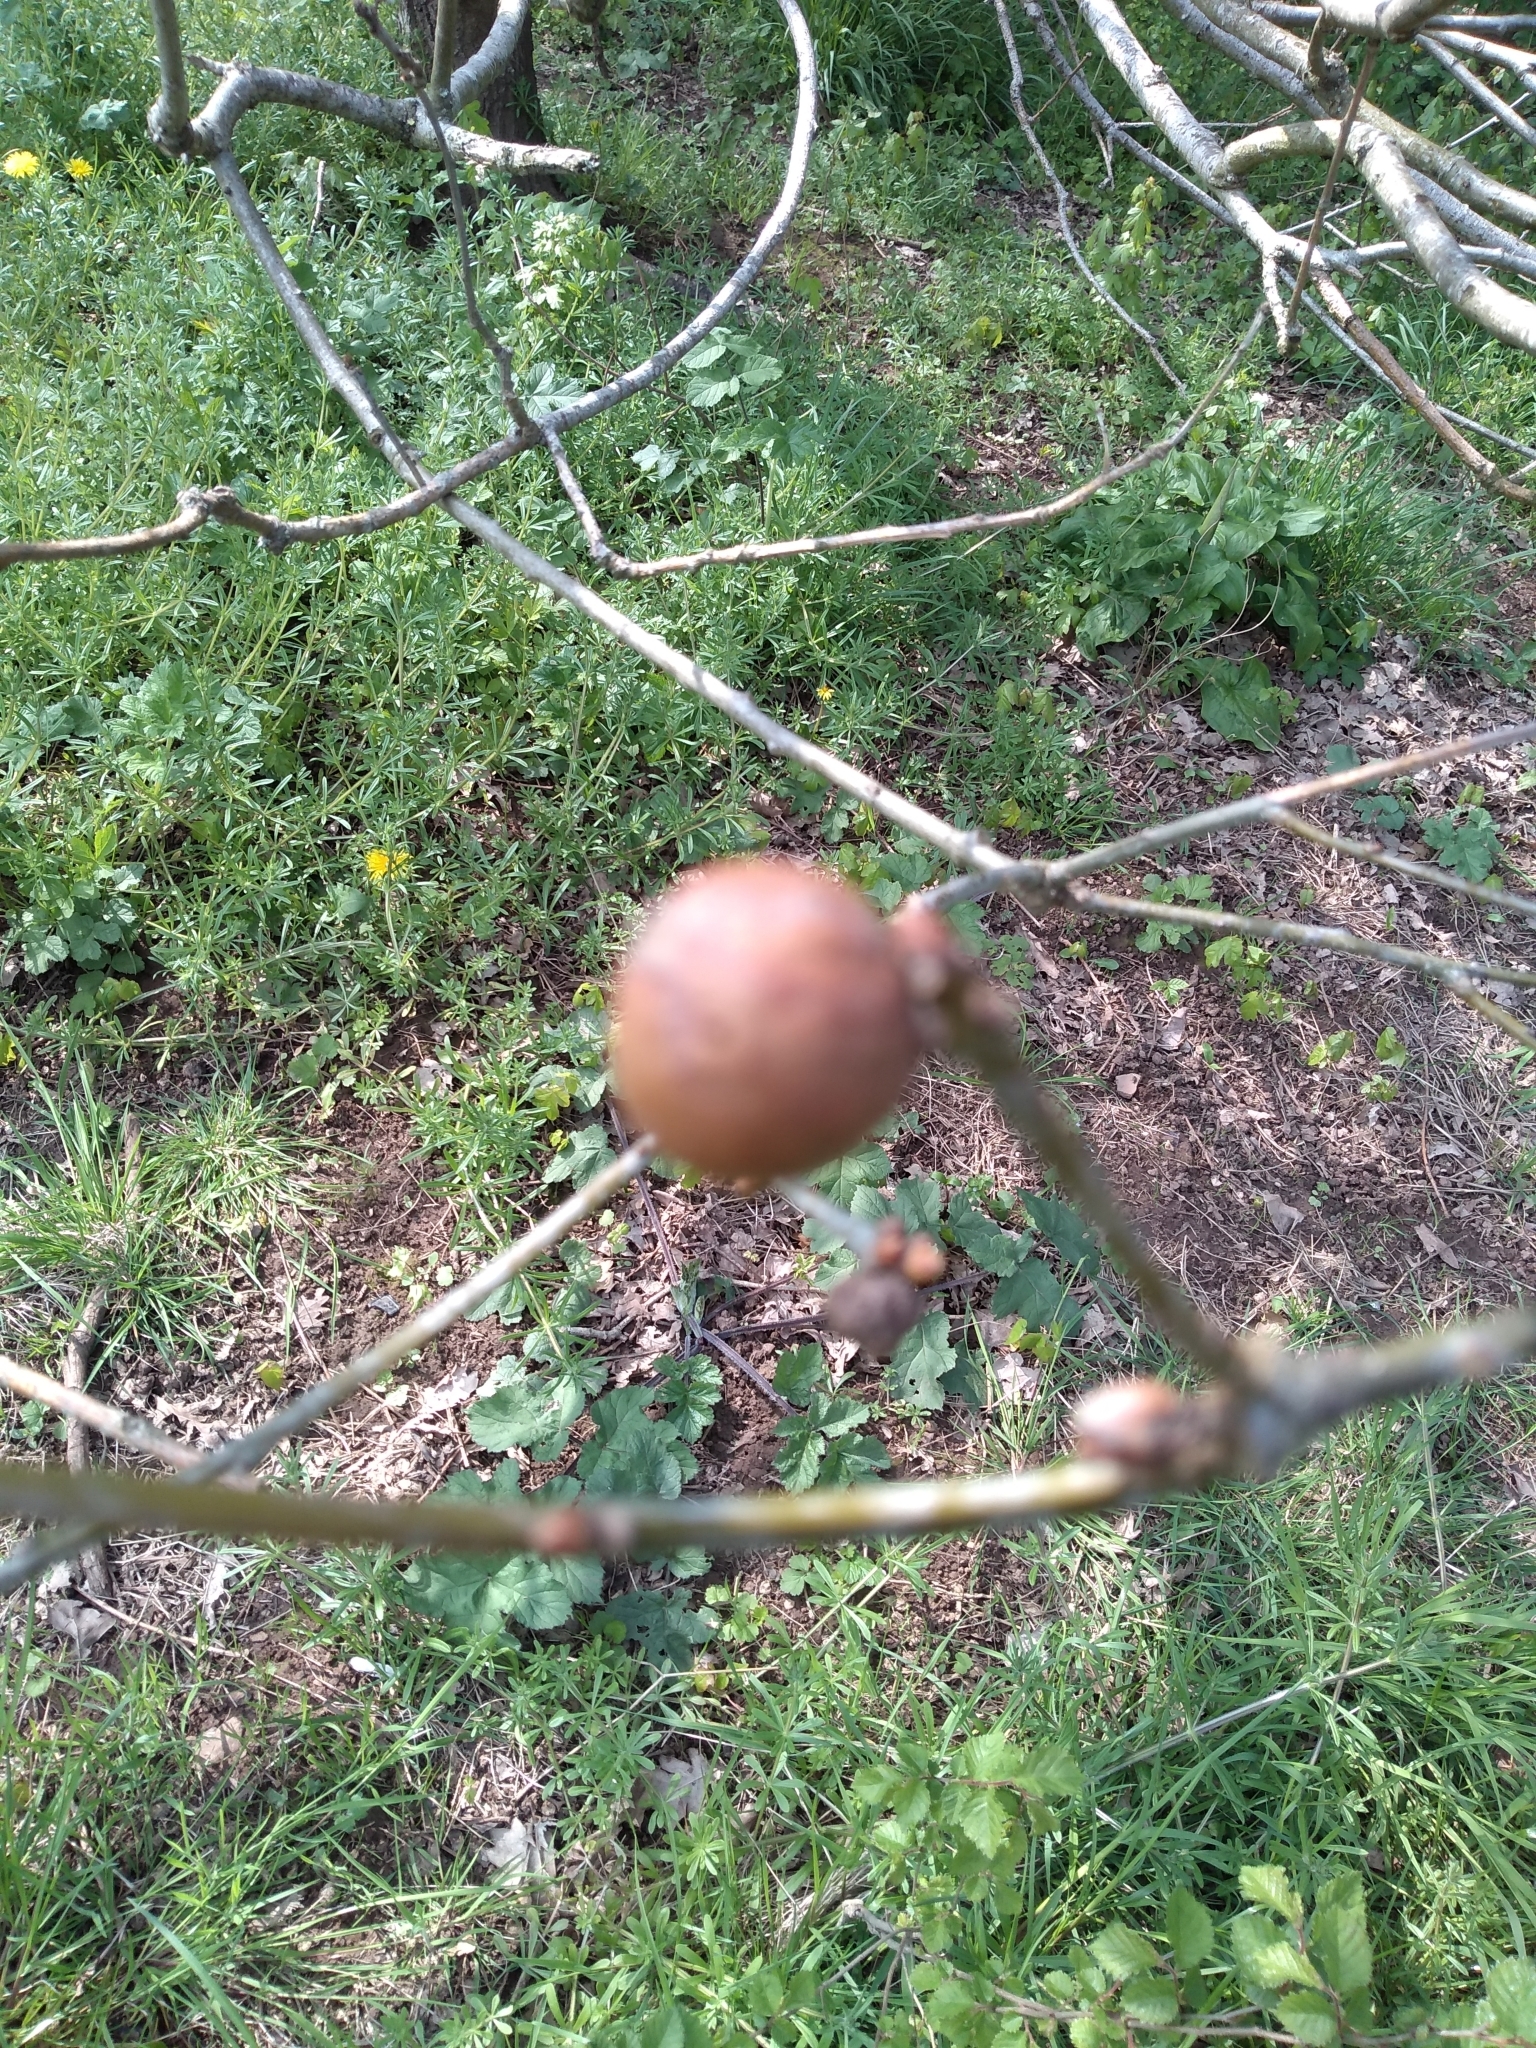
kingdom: Animalia
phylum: Arthropoda
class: Insecta
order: Hymenoptera
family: Cynipidae
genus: Andricus
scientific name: Andricus kollari
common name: Marble gall
